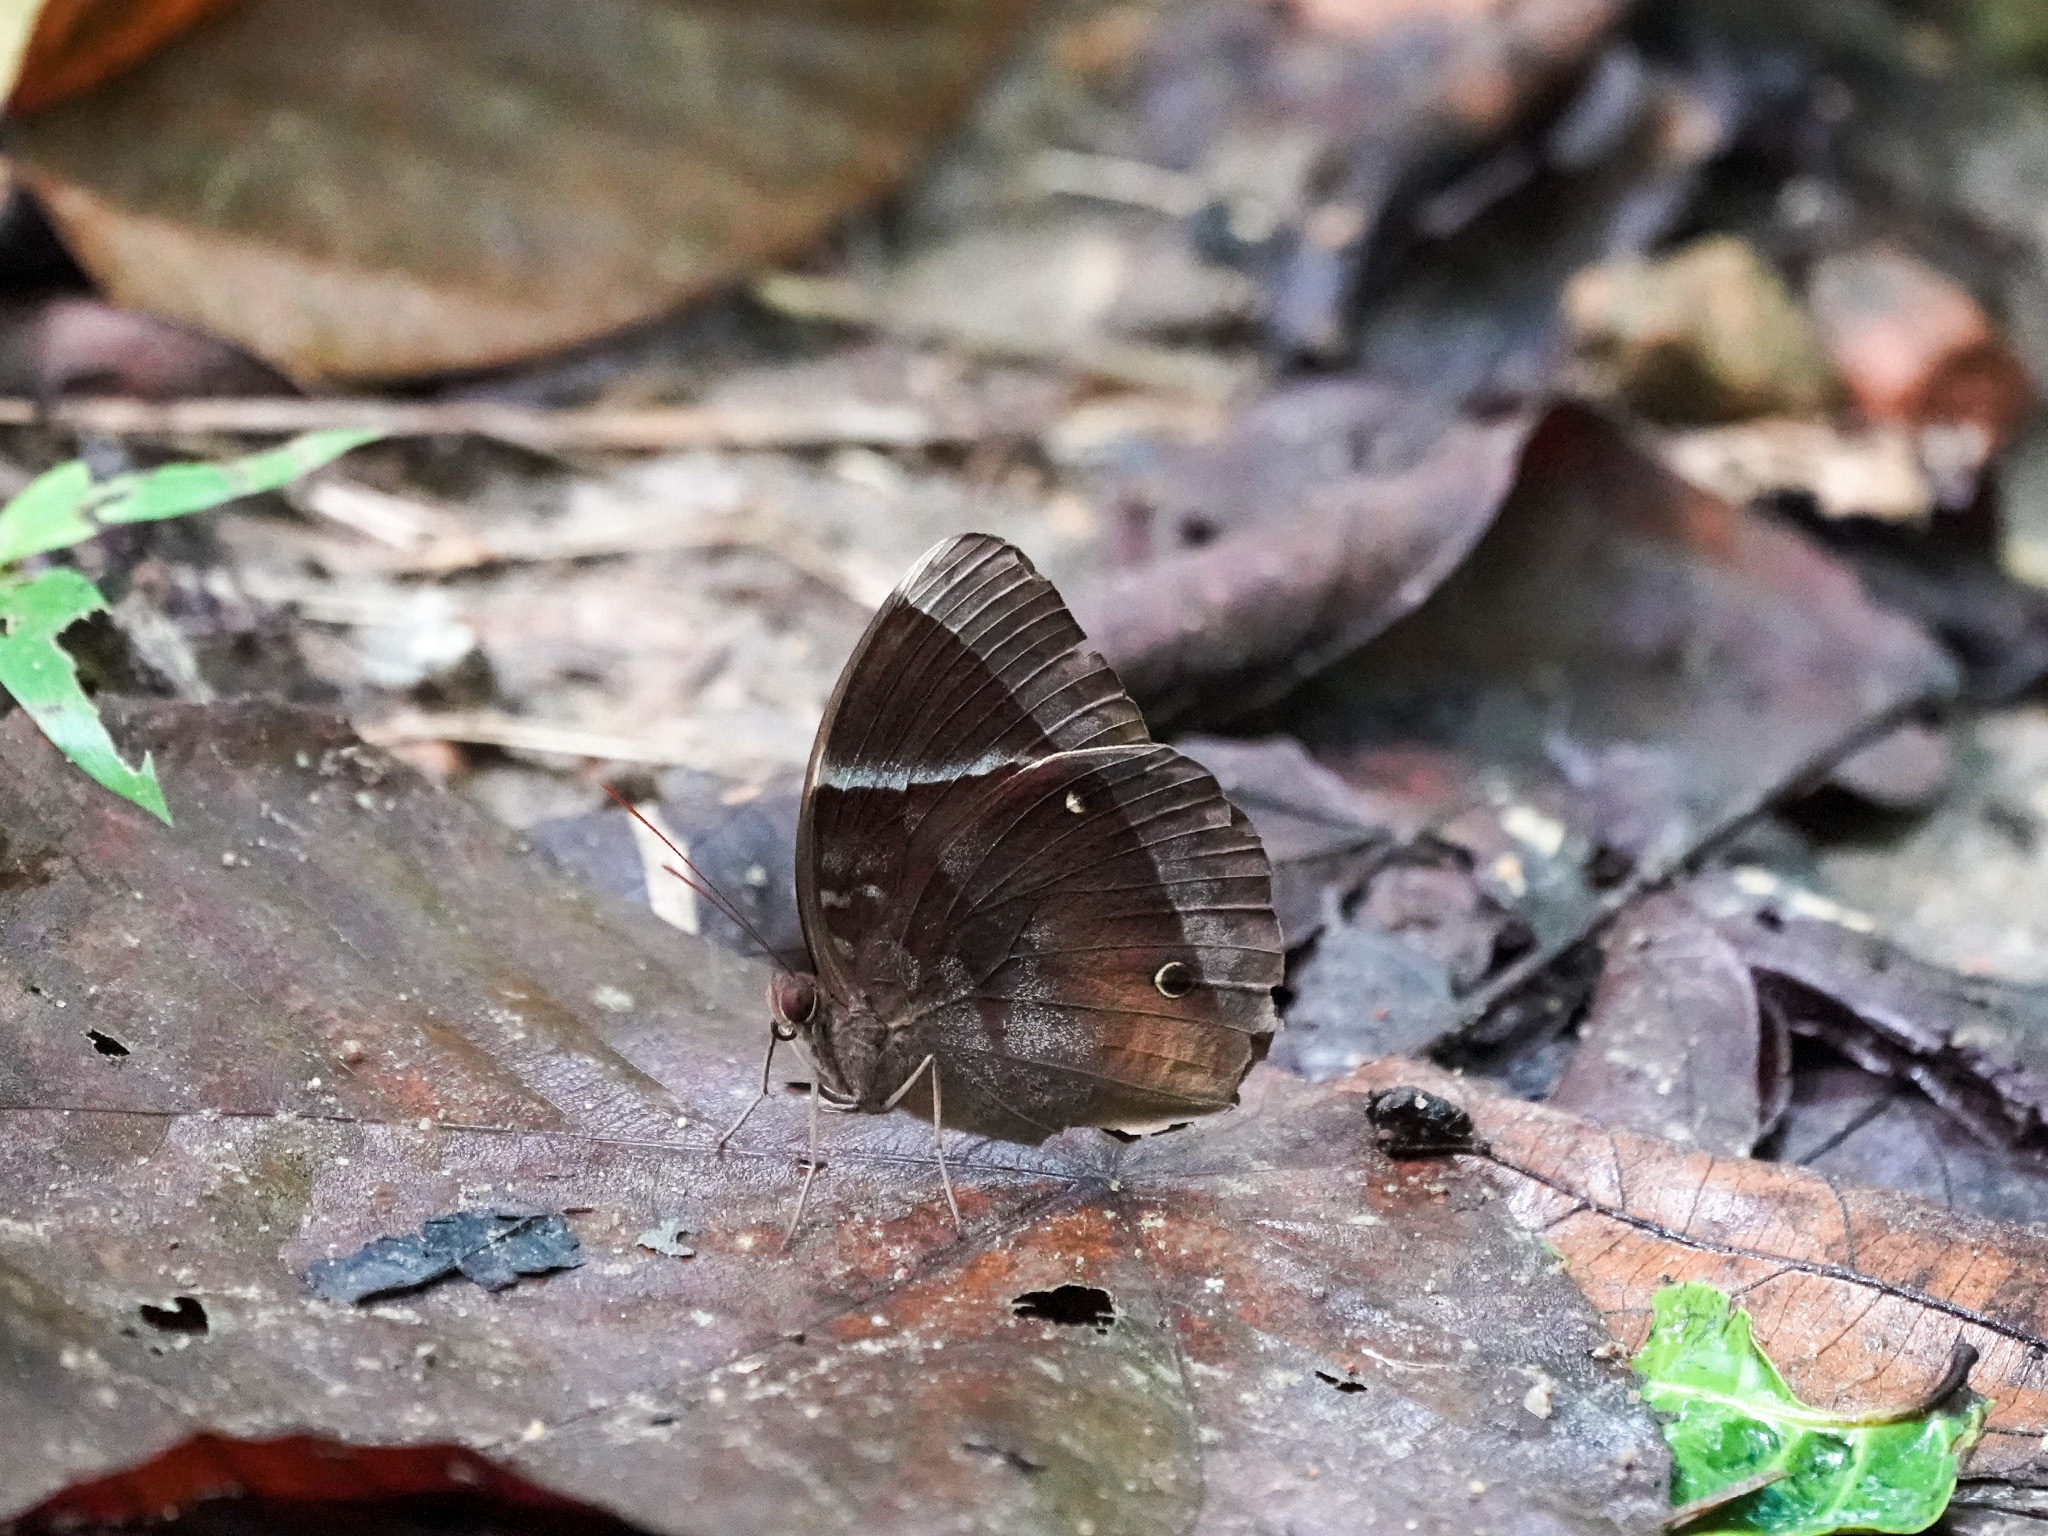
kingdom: Animalia
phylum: Arthropoda
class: Insecta
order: Lepidoptera
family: Nymphalidae
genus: Thaumantis
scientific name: Thaumantis klugius
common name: Dark blue jungle glory
